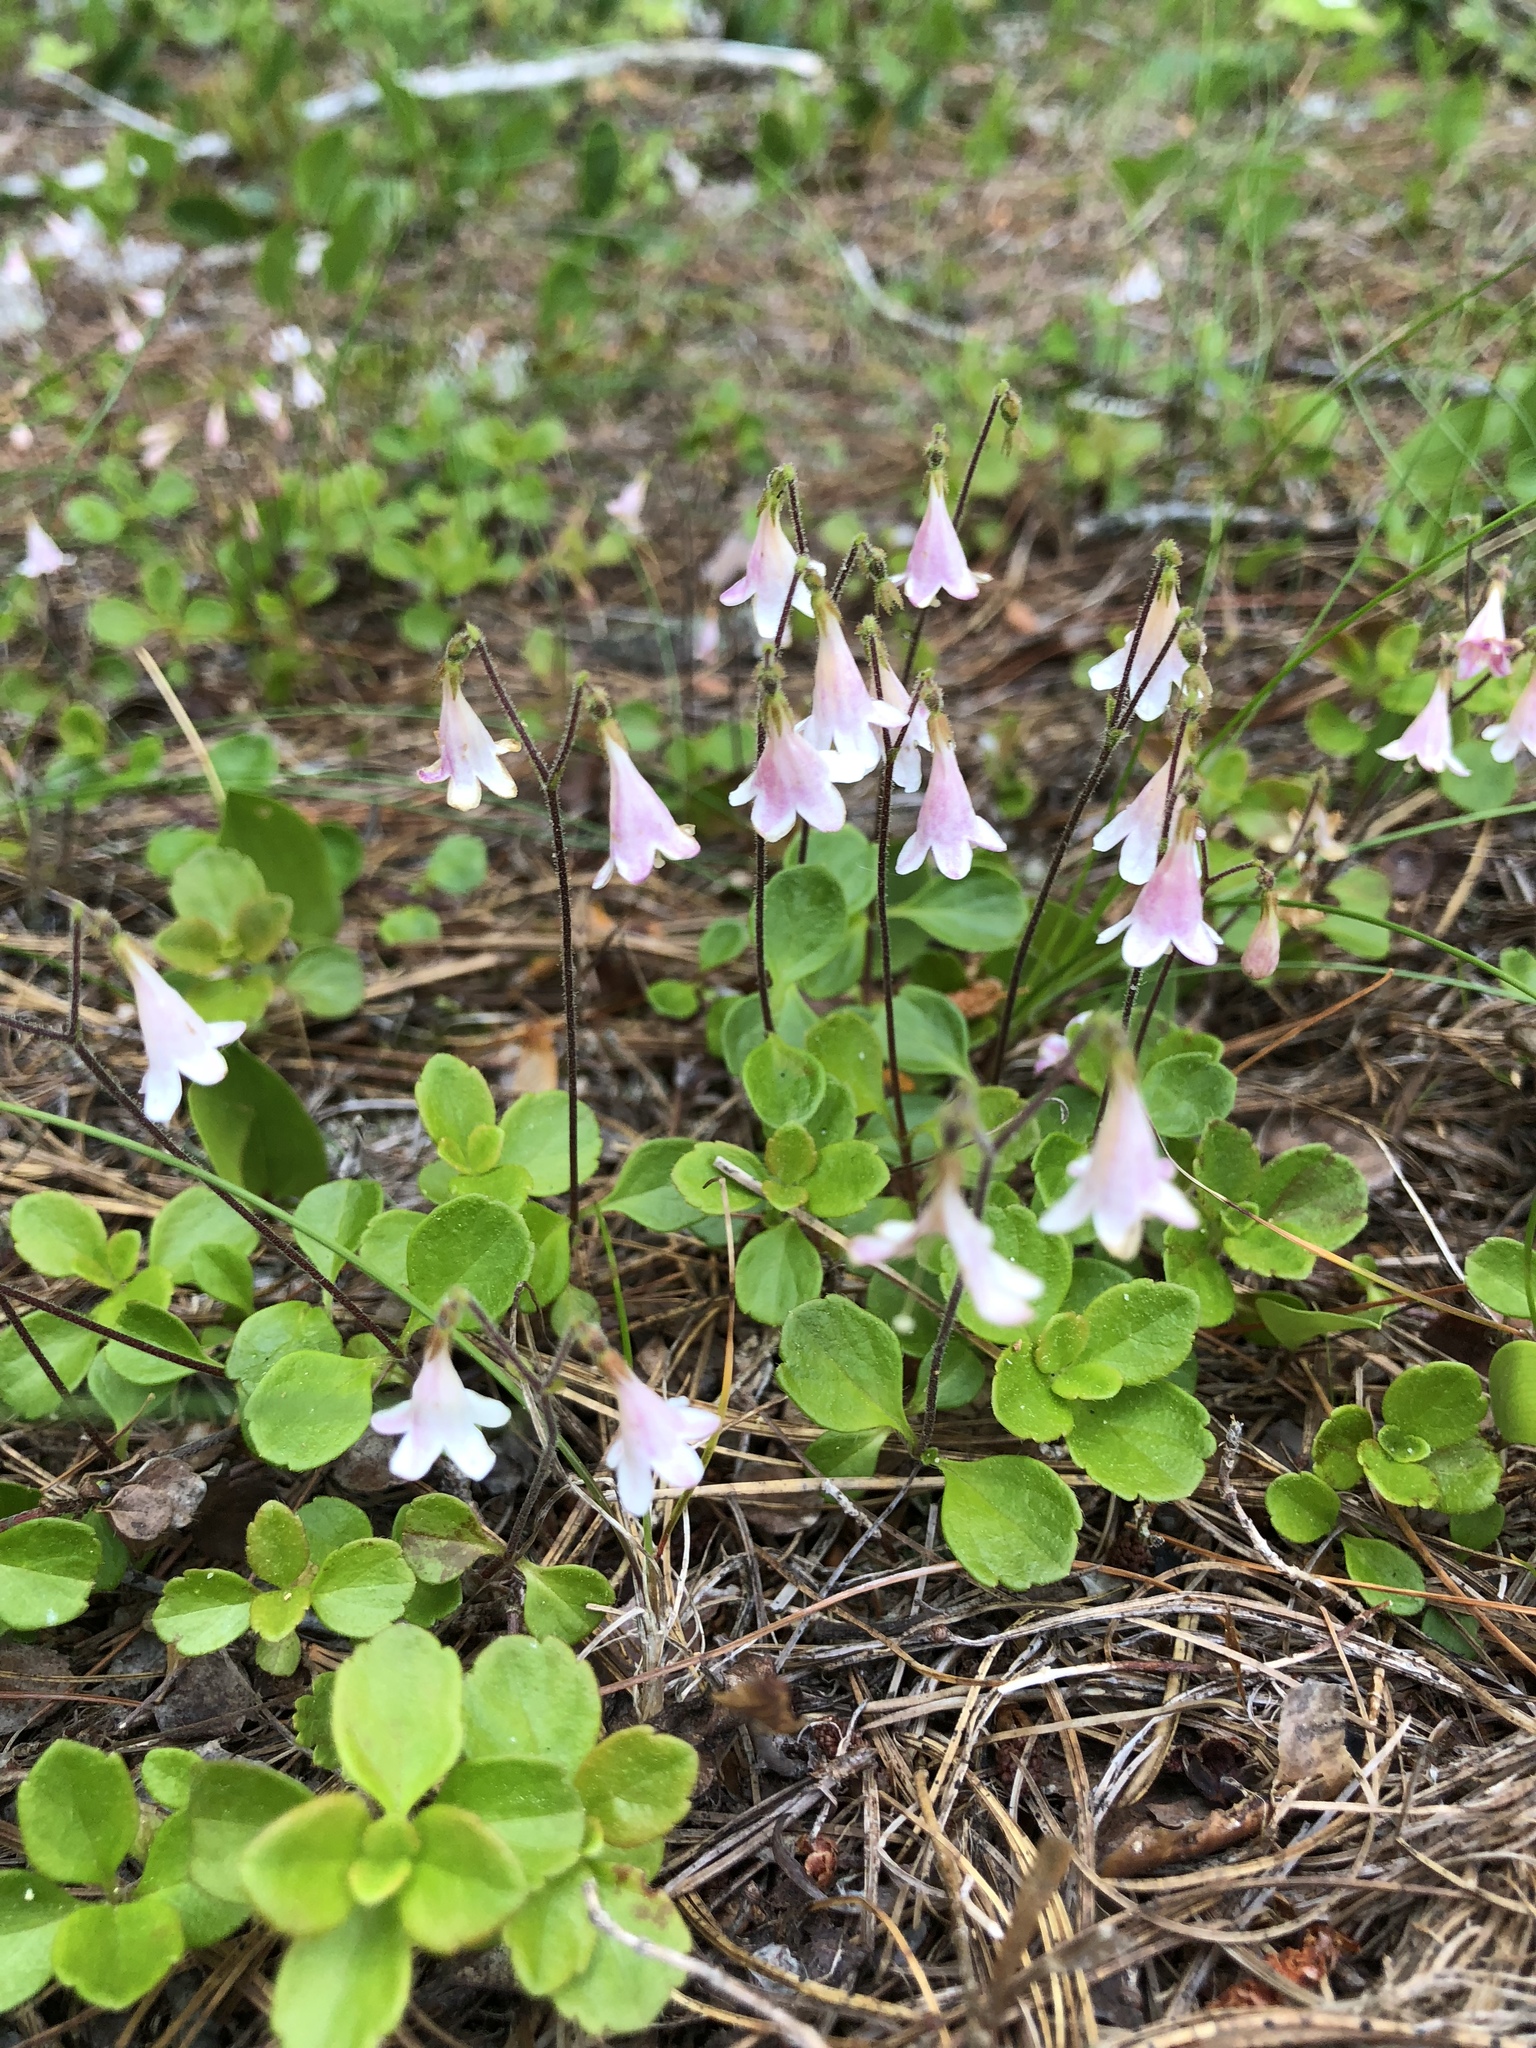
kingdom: Plantae
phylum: Tracheophyta
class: Magnoliopsida
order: Dipsacales
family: Caprifoliaceae
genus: Linnaea
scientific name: Linnaea borealis
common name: Twinflower
